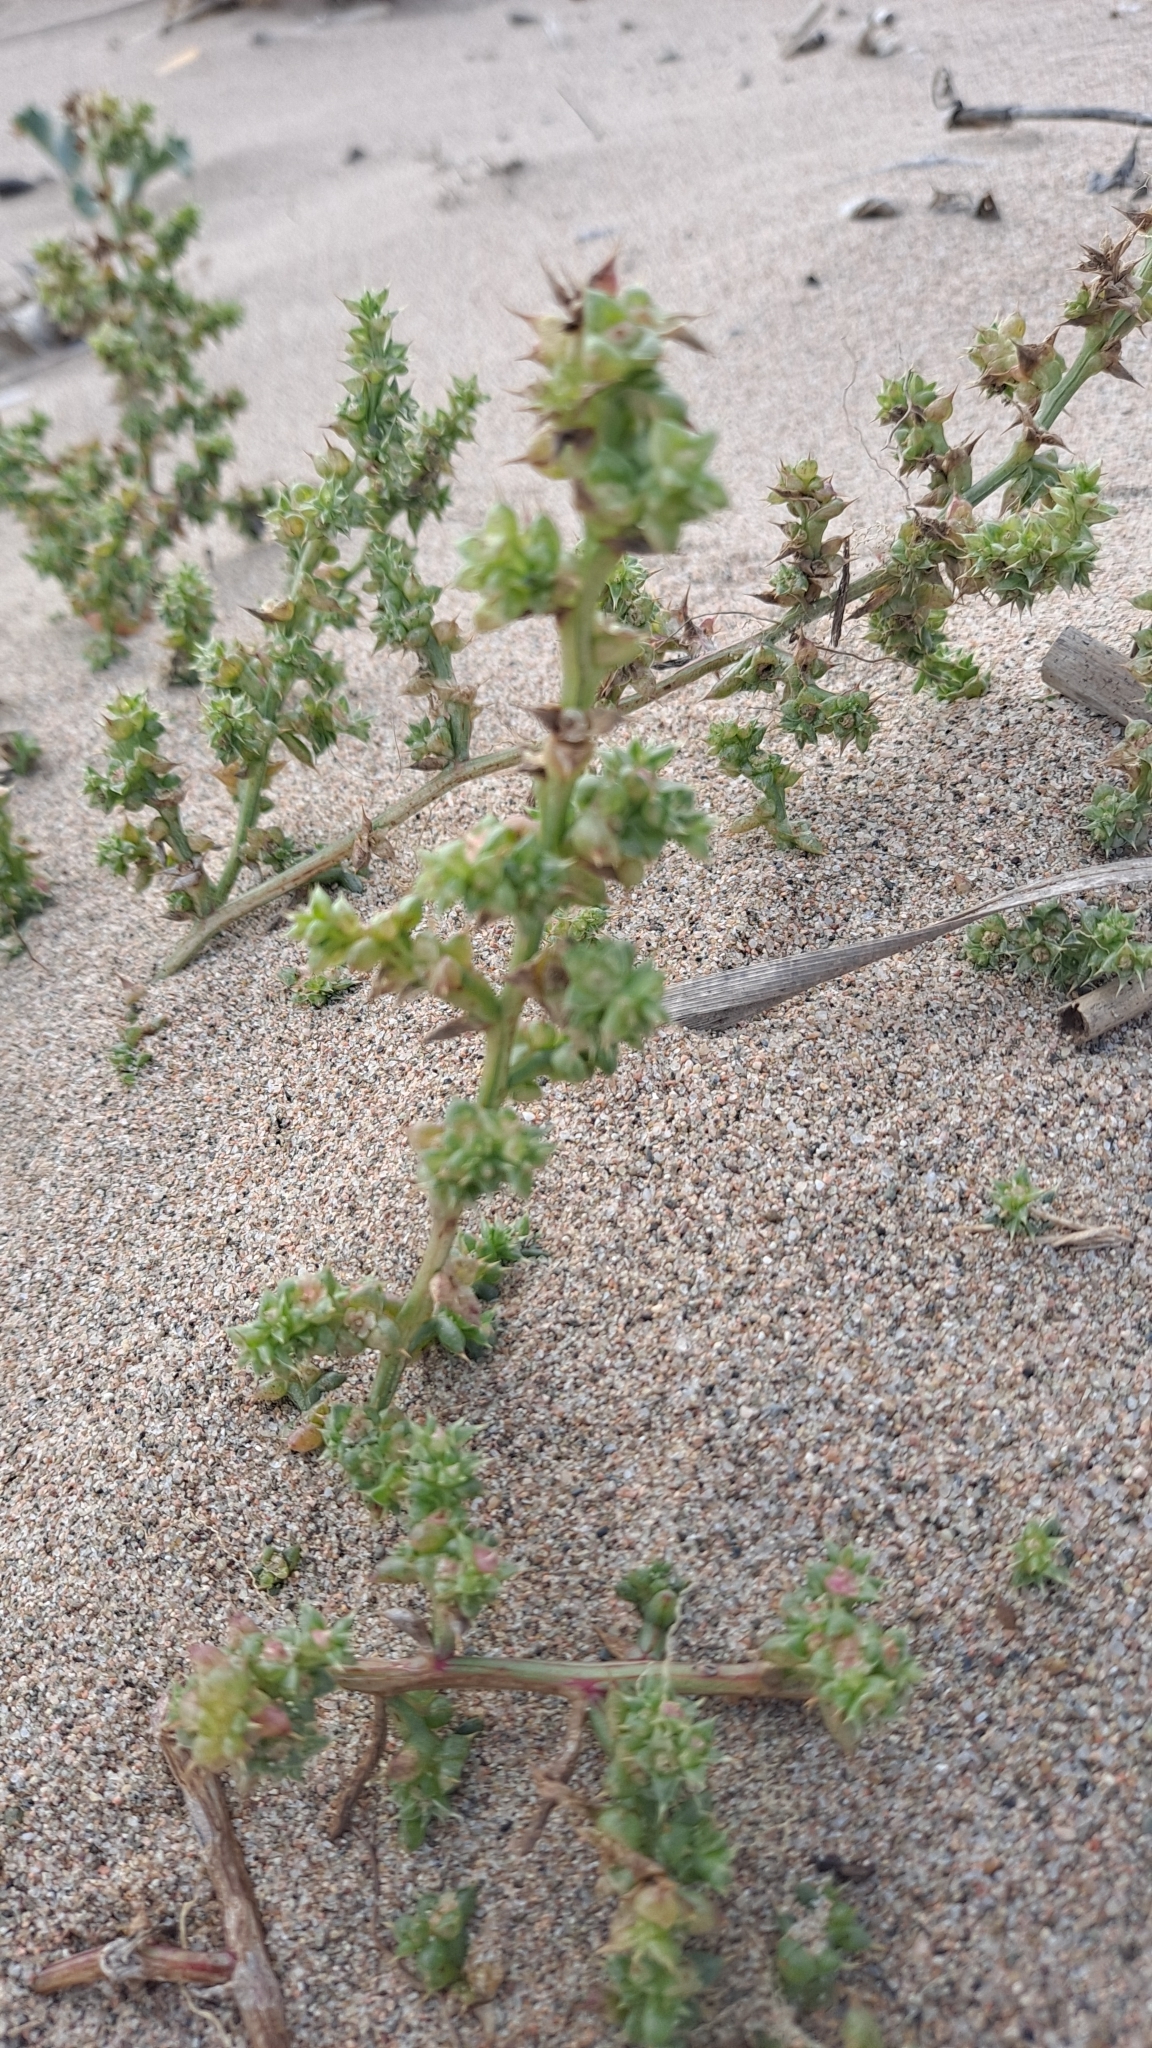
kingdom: Plantae
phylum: Tracheophyta
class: Magnoliopsida
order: Caryophyllales
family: Amaranthaceae
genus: Salsola
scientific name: Salsola kali
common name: Saltwort
